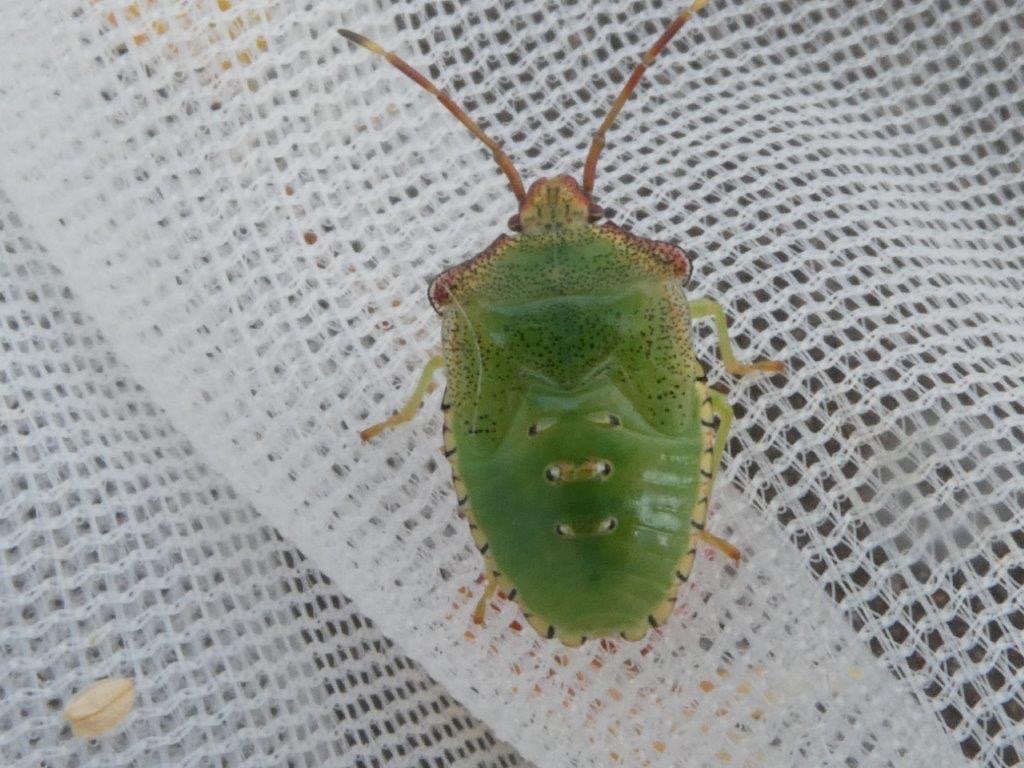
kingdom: Animalia
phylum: Arthropoda
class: Insecta
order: Hemiptera
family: Acanthosomatidae
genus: Acanthosoma
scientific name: Acanthosoma haemorrhoidale
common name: Hawthorn shieldbug
